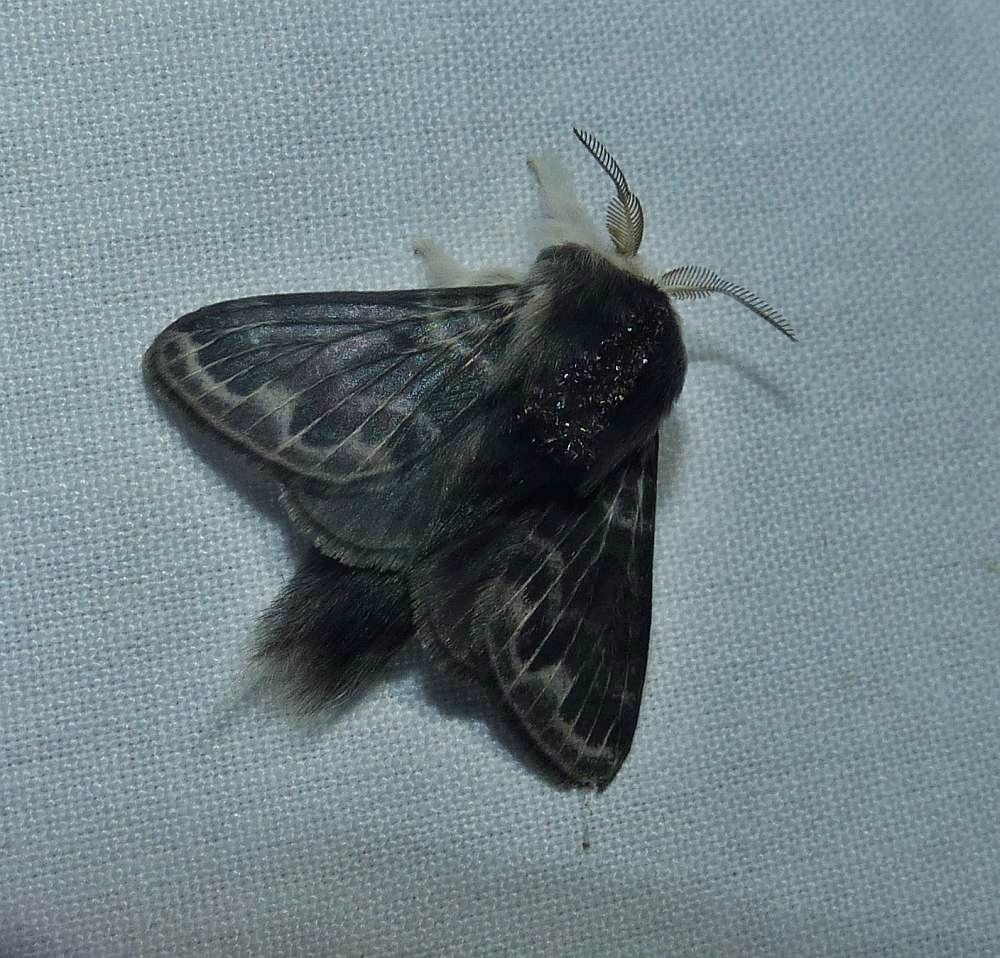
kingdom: Animalia
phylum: Arthropoda
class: Insecta
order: Lepidoptera
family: Lasiocampidae
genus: Tolype
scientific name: Tolype laricis
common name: Larch tolype moth
